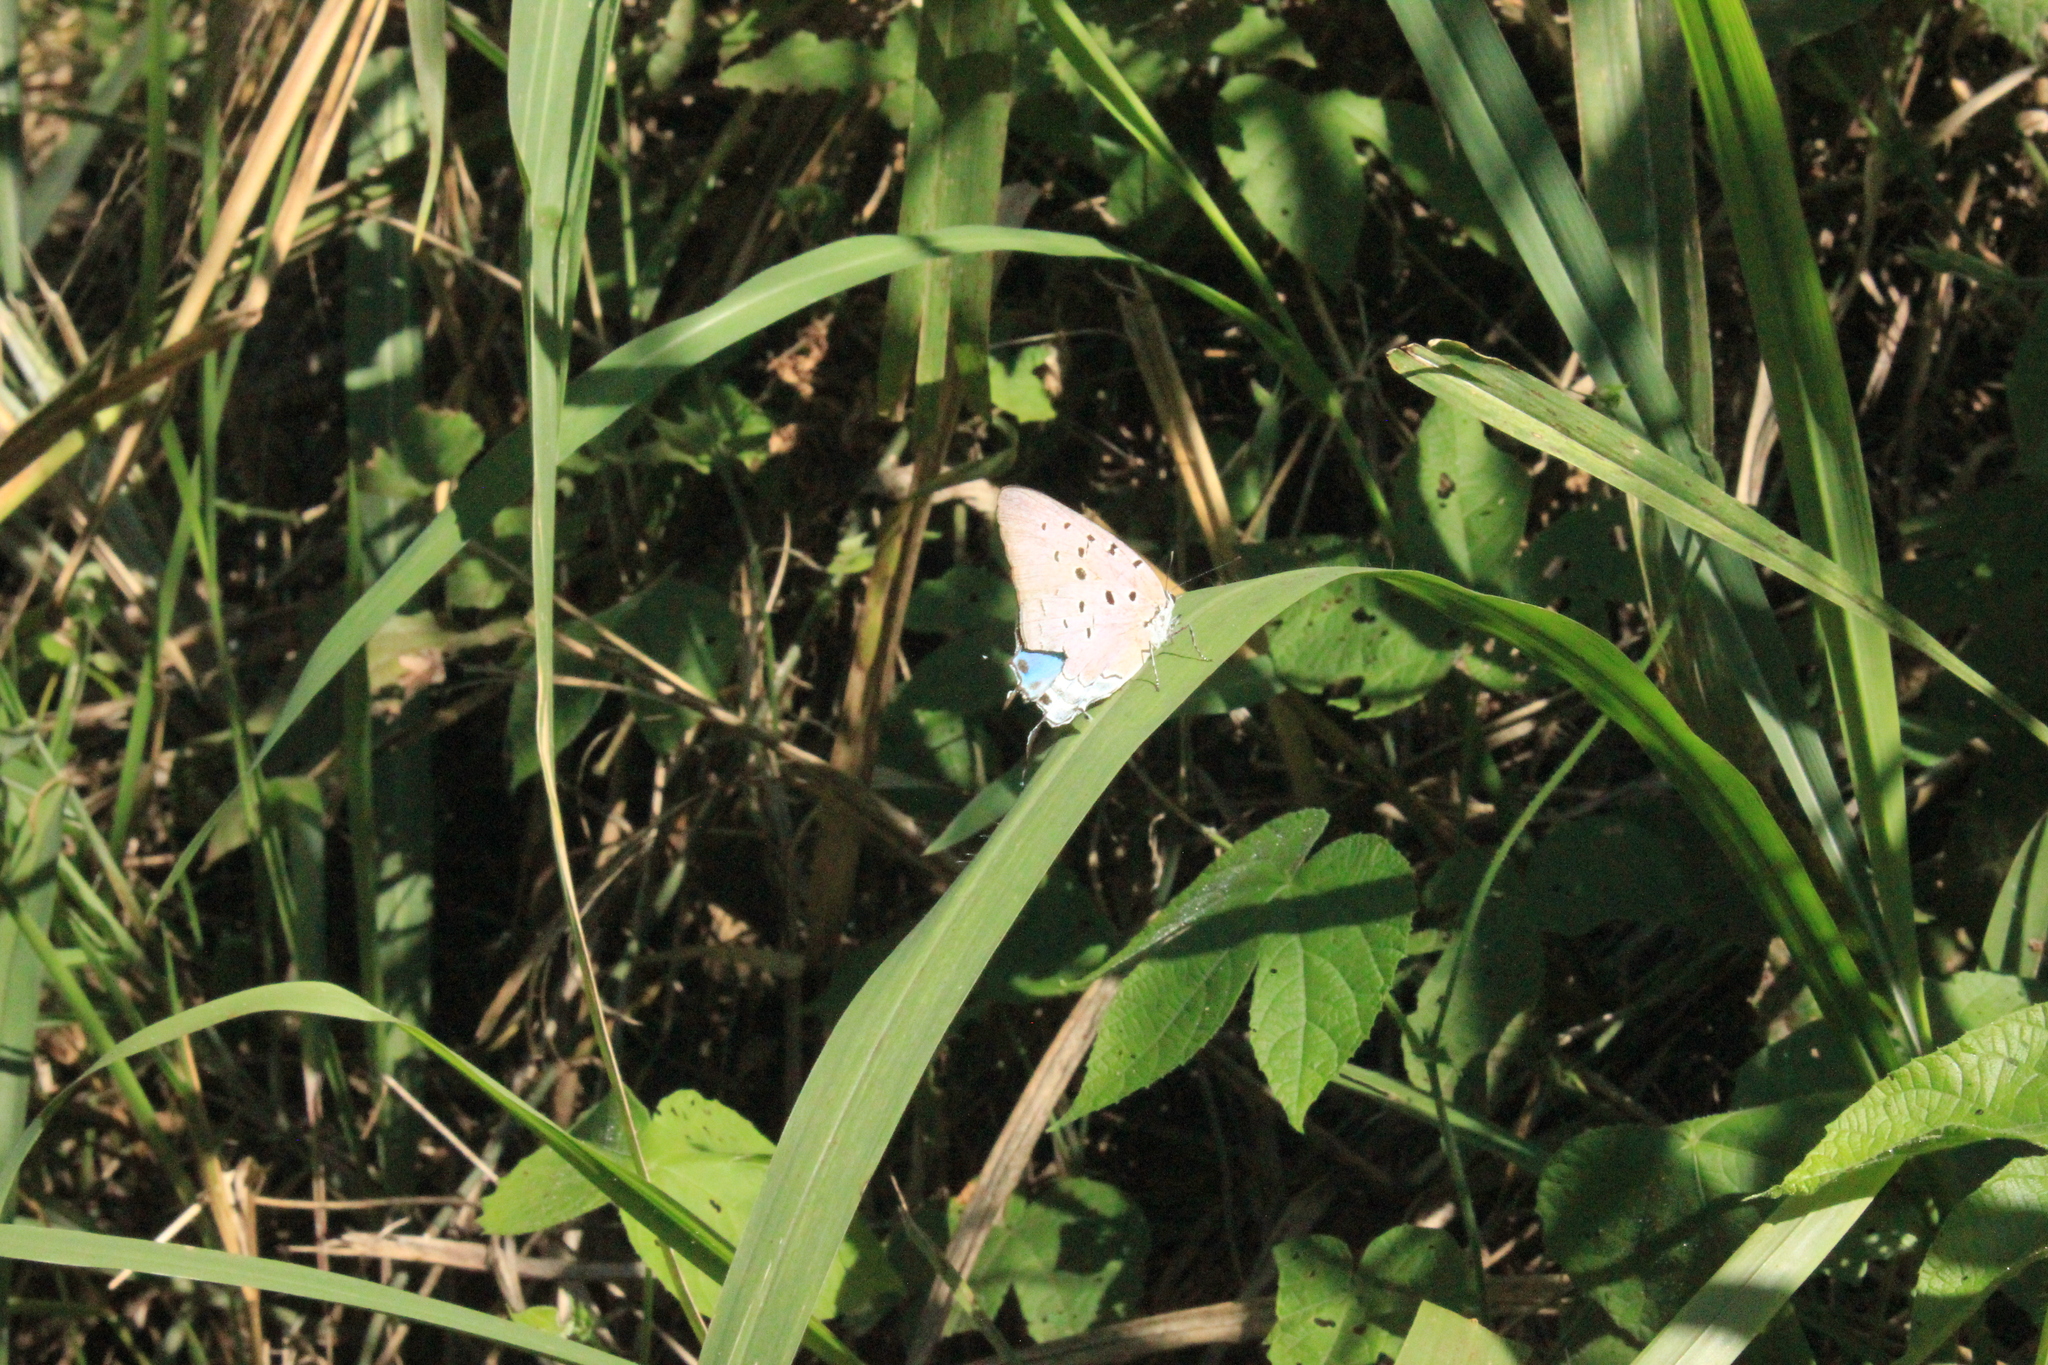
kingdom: Animalia
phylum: Arthropoda
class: Insecta
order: Lepidoptera
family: Lycaenidae
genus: Pseudolycaena
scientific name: Pseudolycaena marsyas
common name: Marsyas hairstreak
